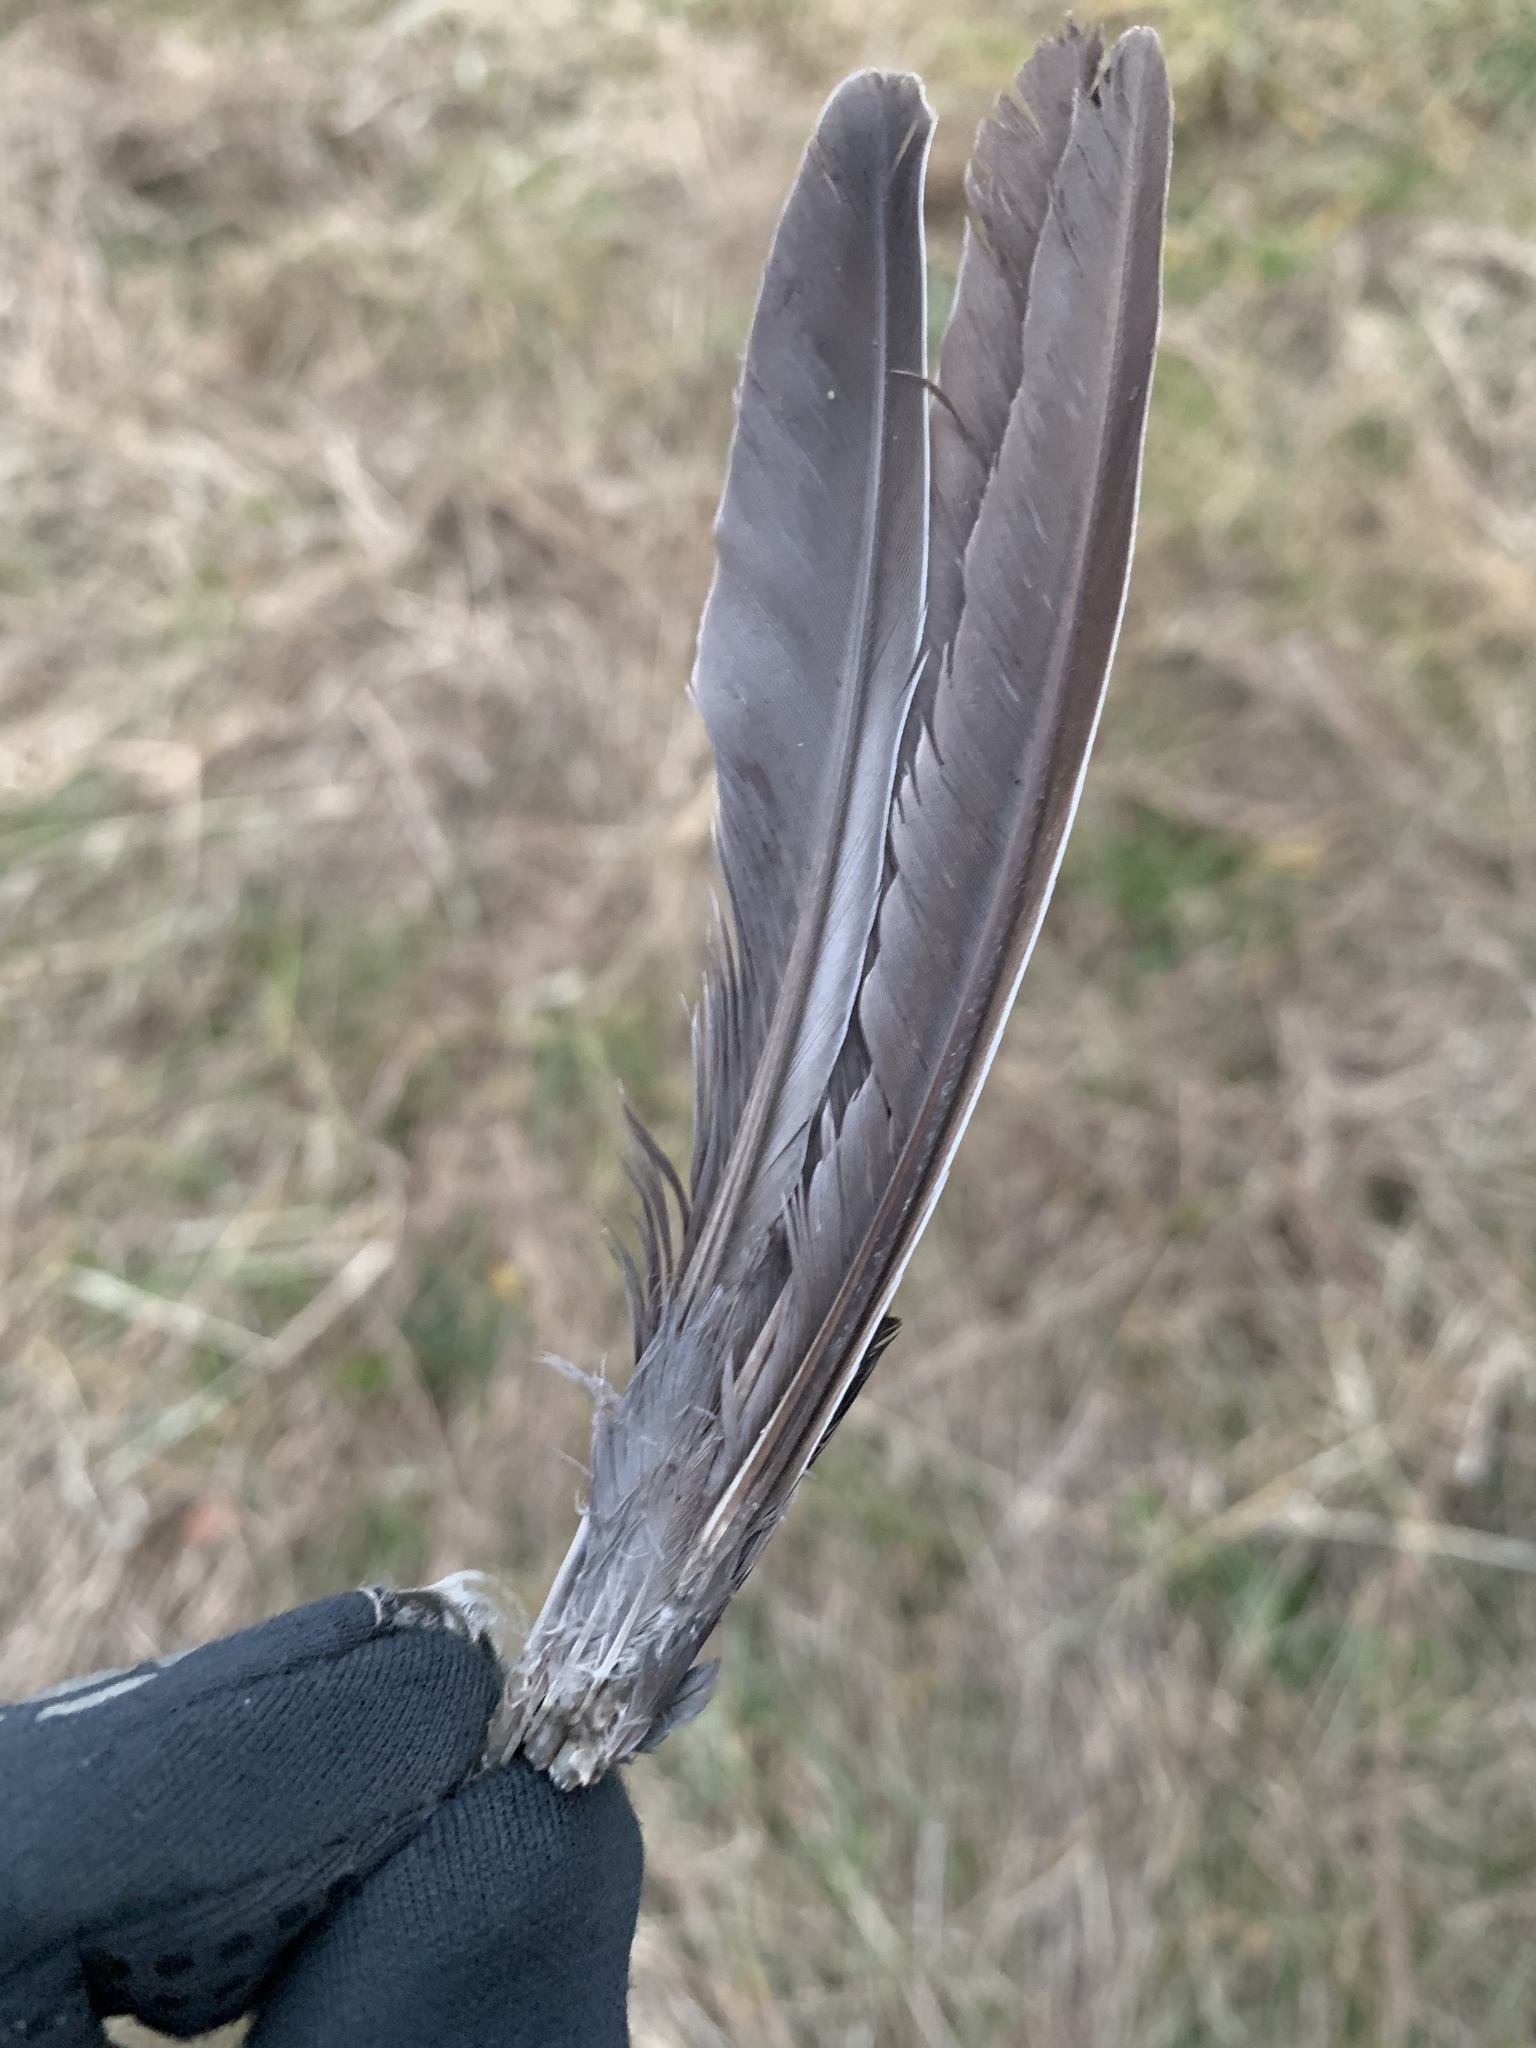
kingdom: Animalia
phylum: Chordata
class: Aves
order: Columbiformes
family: Columbidae
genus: Zenaida
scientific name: Zenaida macroura
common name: Mourning dove
